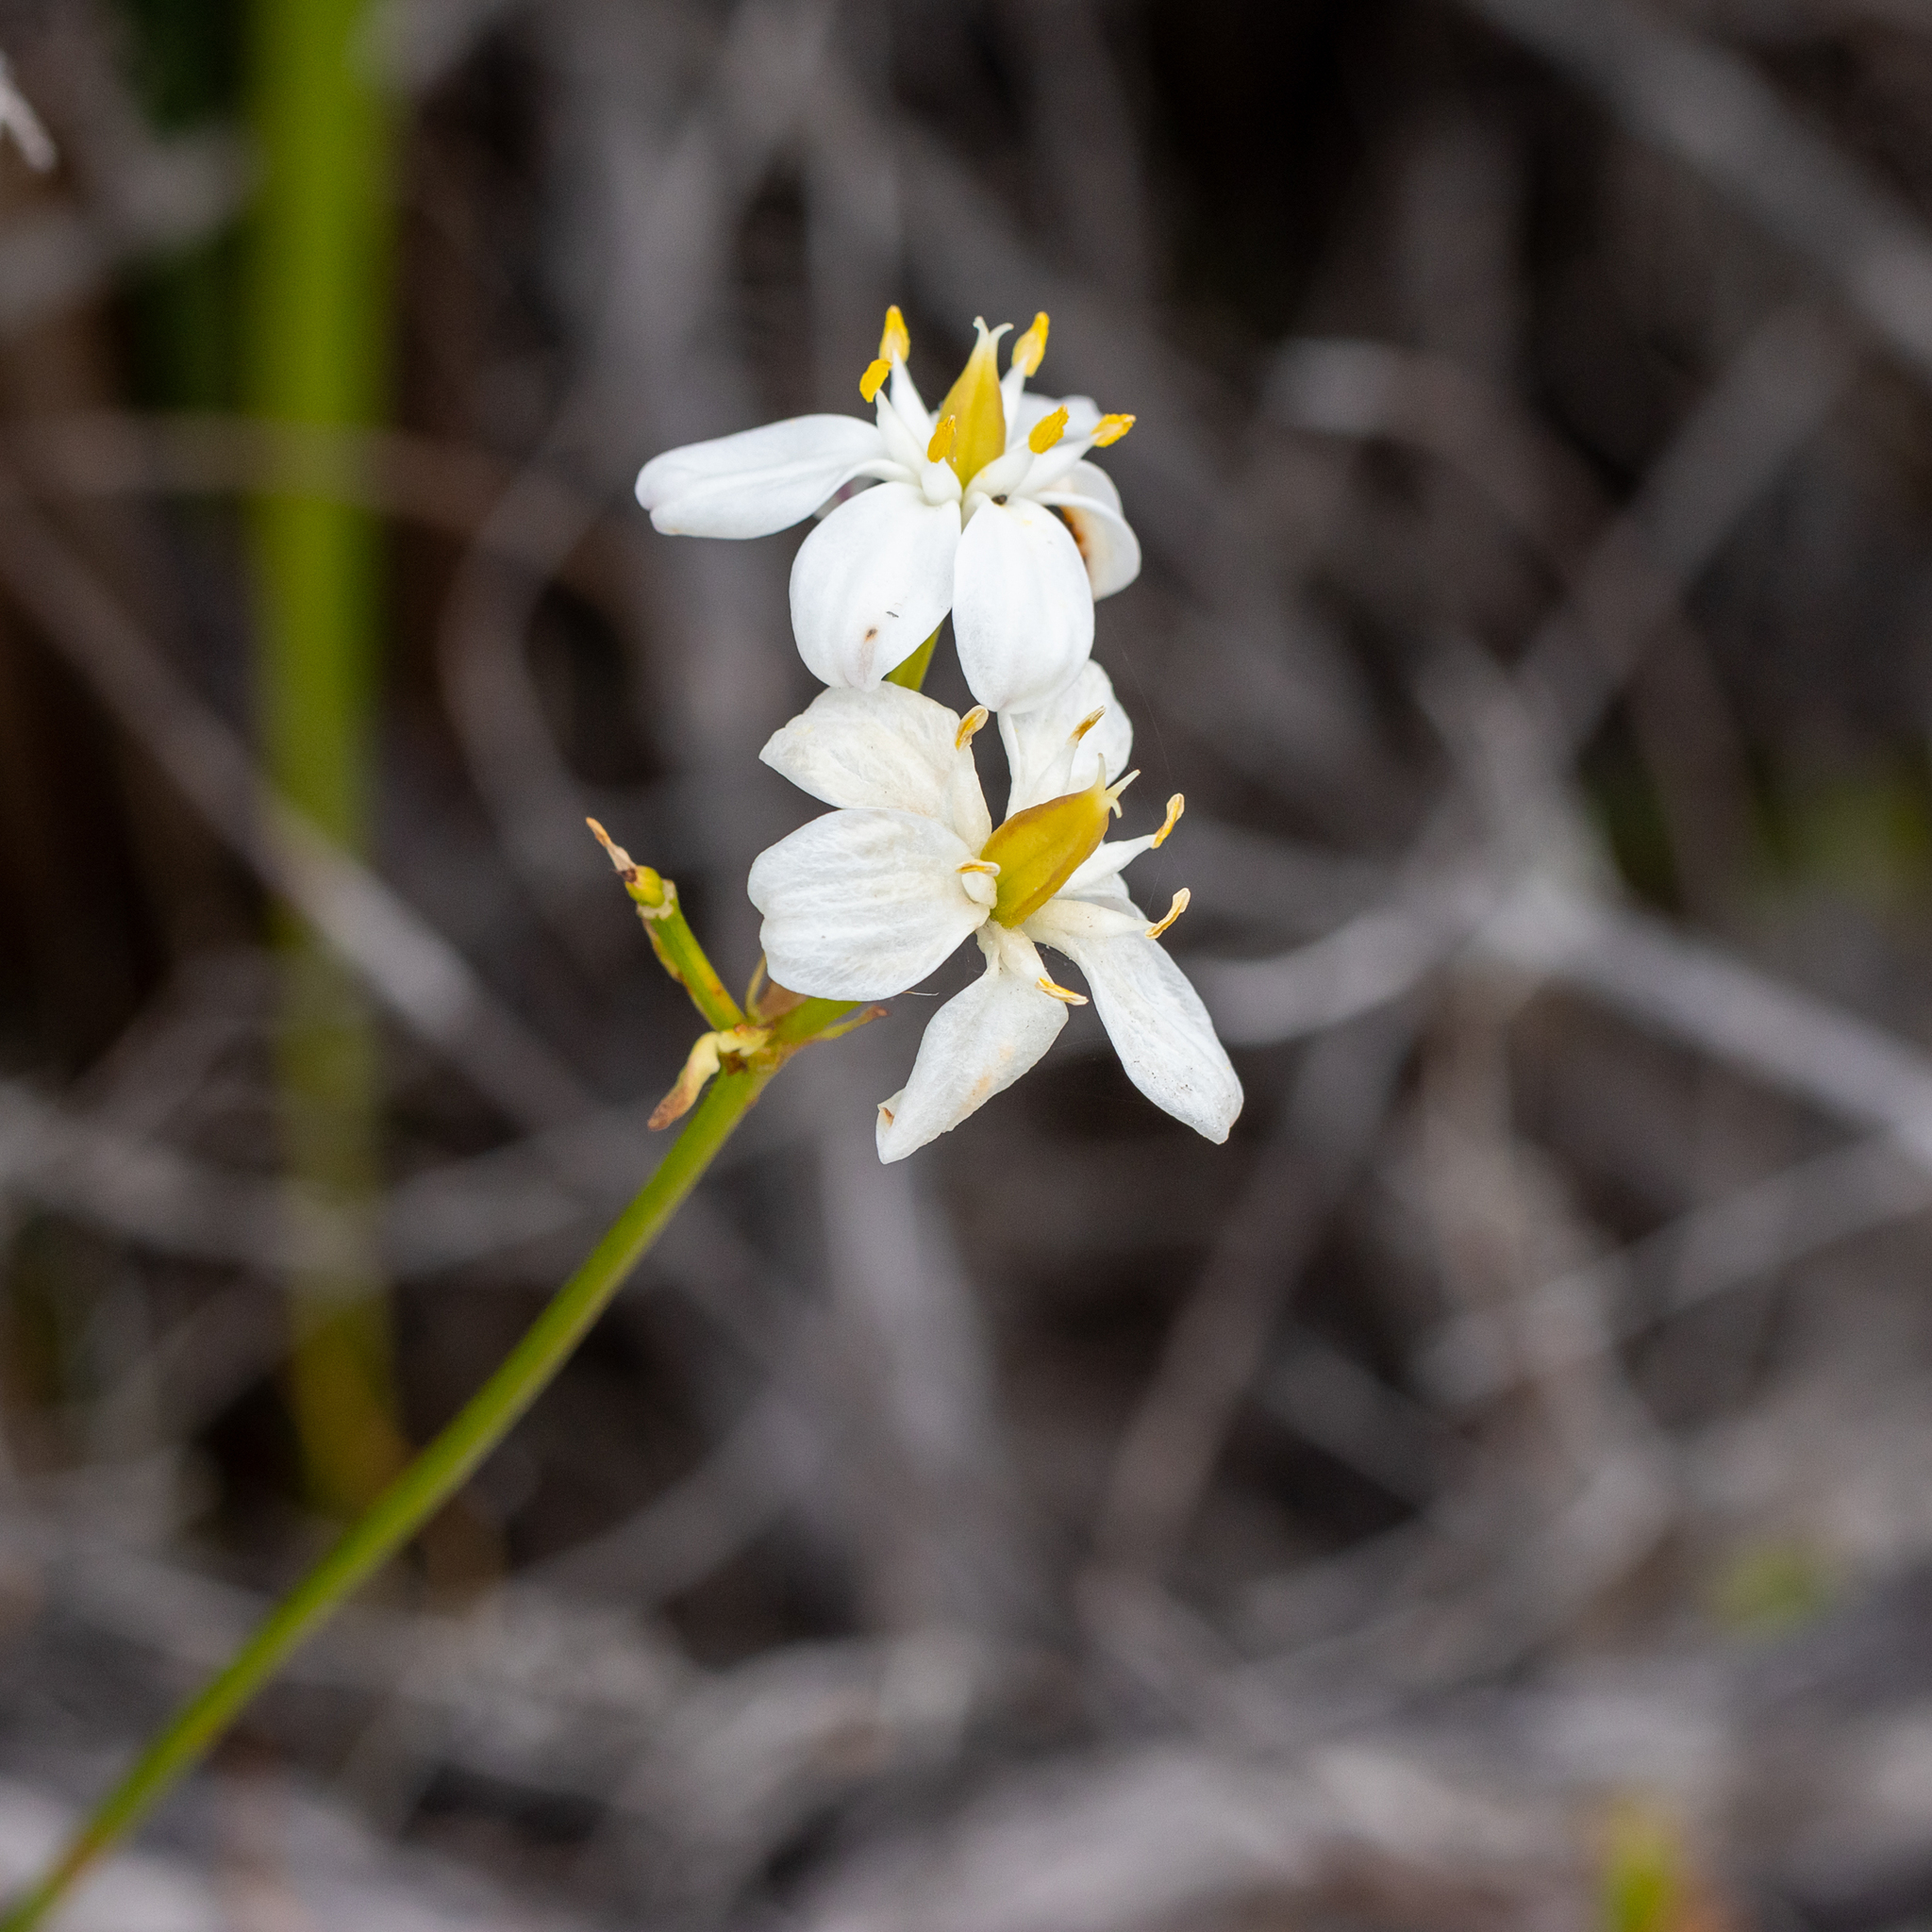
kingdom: Plantae
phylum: Tracheophyta
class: Liliopsida
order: Liliales
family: Colchicaceae
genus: Burchardia
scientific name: Burchardia congesta
